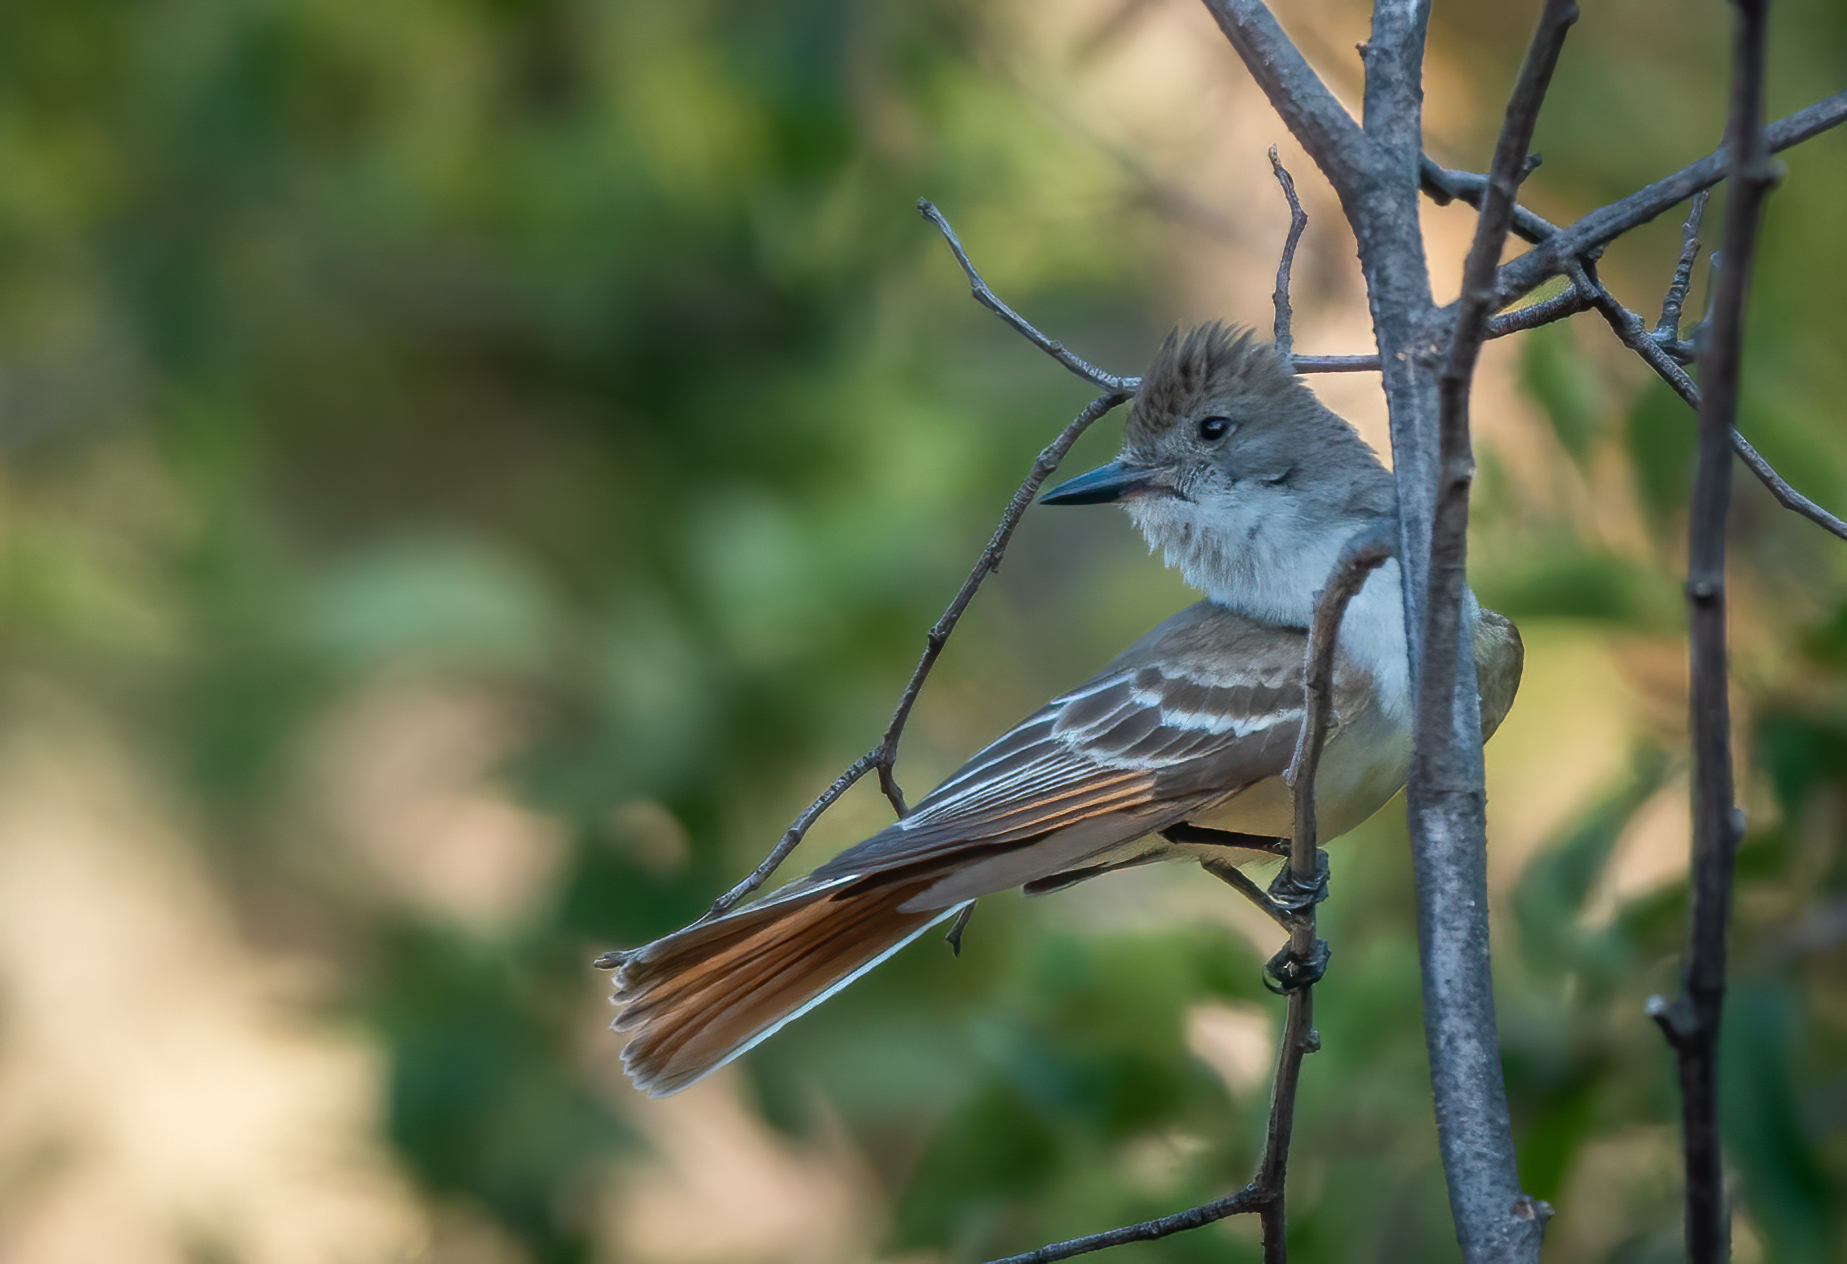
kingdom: Animalia
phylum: Chordata
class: Aves
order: Passeriformes
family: Tyrannidae
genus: Myiarchus
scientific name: Myiarchus cinerascens
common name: Ash-throated flycatcher
